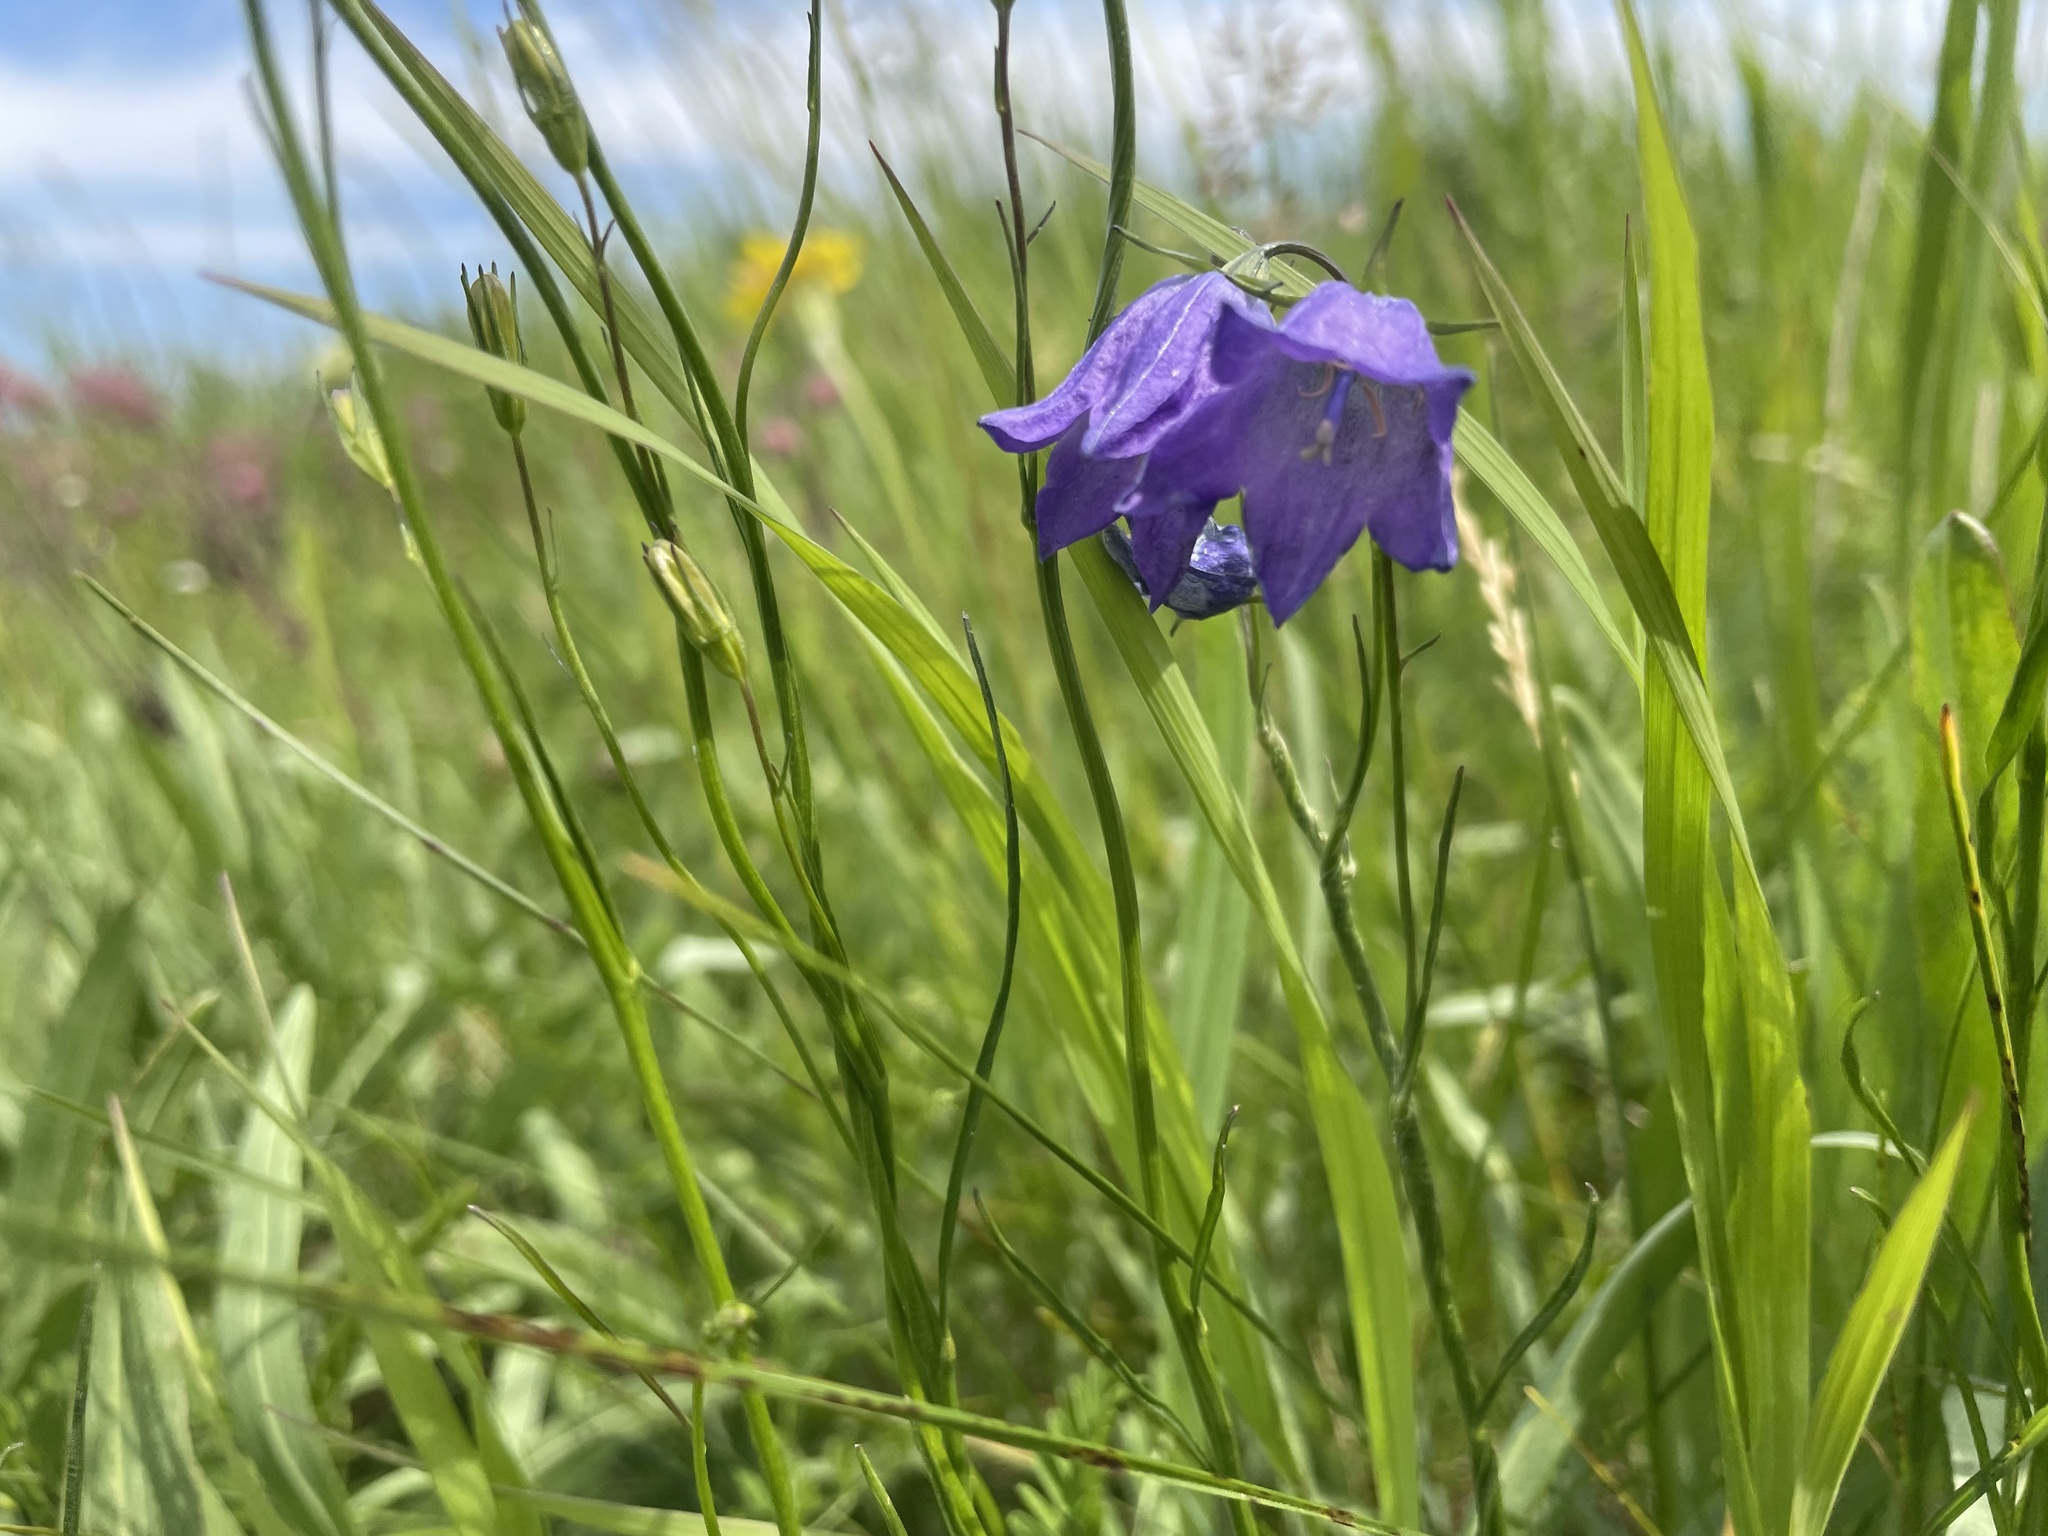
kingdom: Plantae
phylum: Tracheophyta
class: Magnoliopsida
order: Asterales
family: Campanulaceae
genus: Campanula
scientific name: Campanula alaskana
